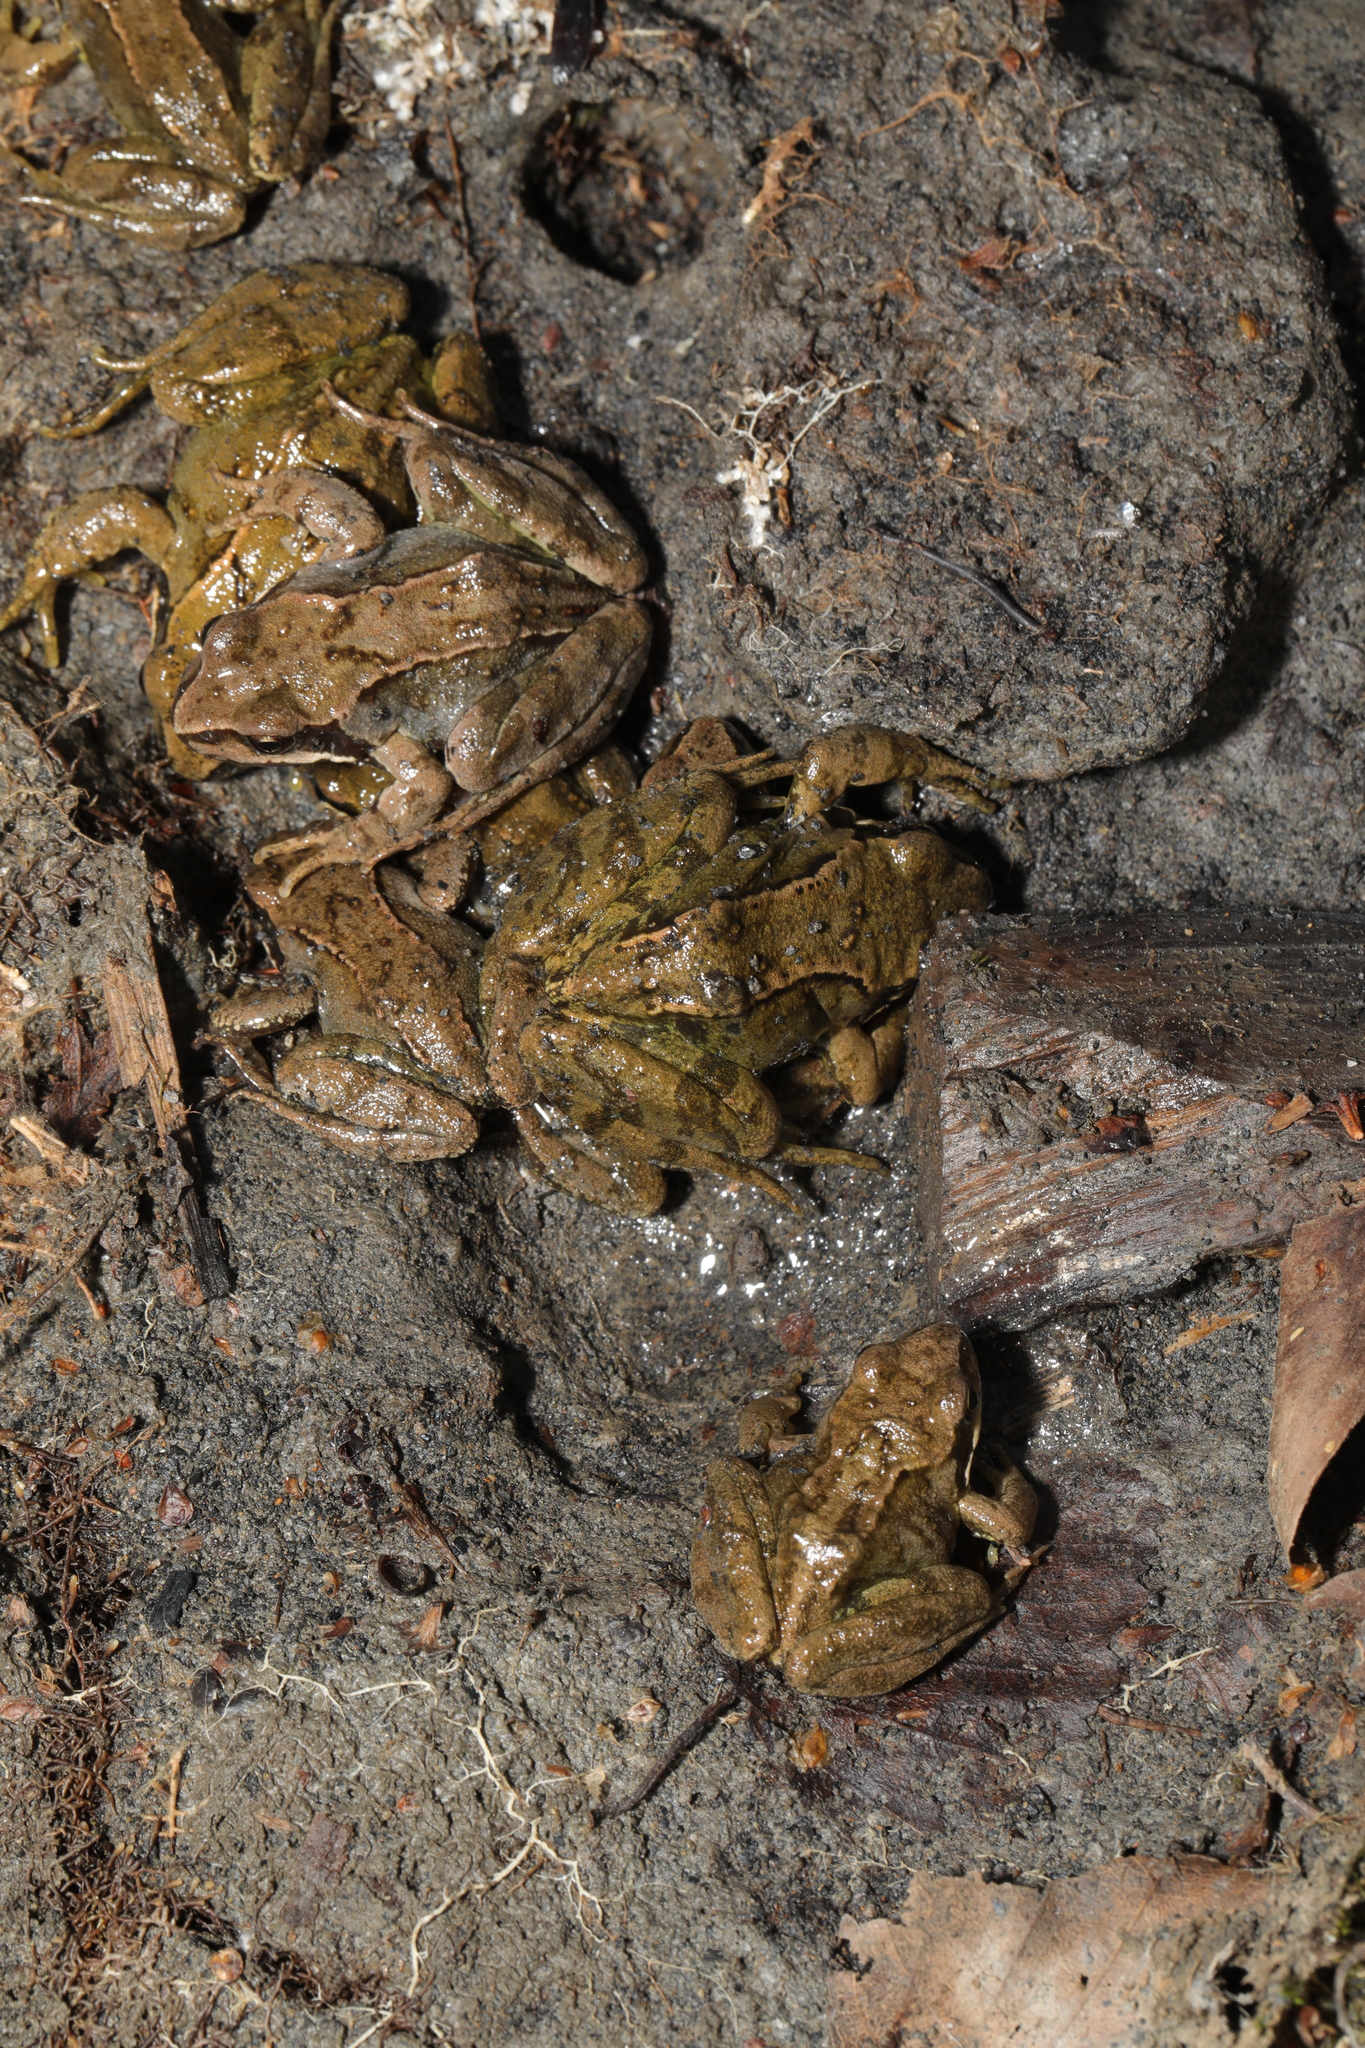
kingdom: Animalia
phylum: Chordata
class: Amphibia
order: Anura
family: Ranidae
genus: Rana
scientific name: Rana temporaria
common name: Common frog
